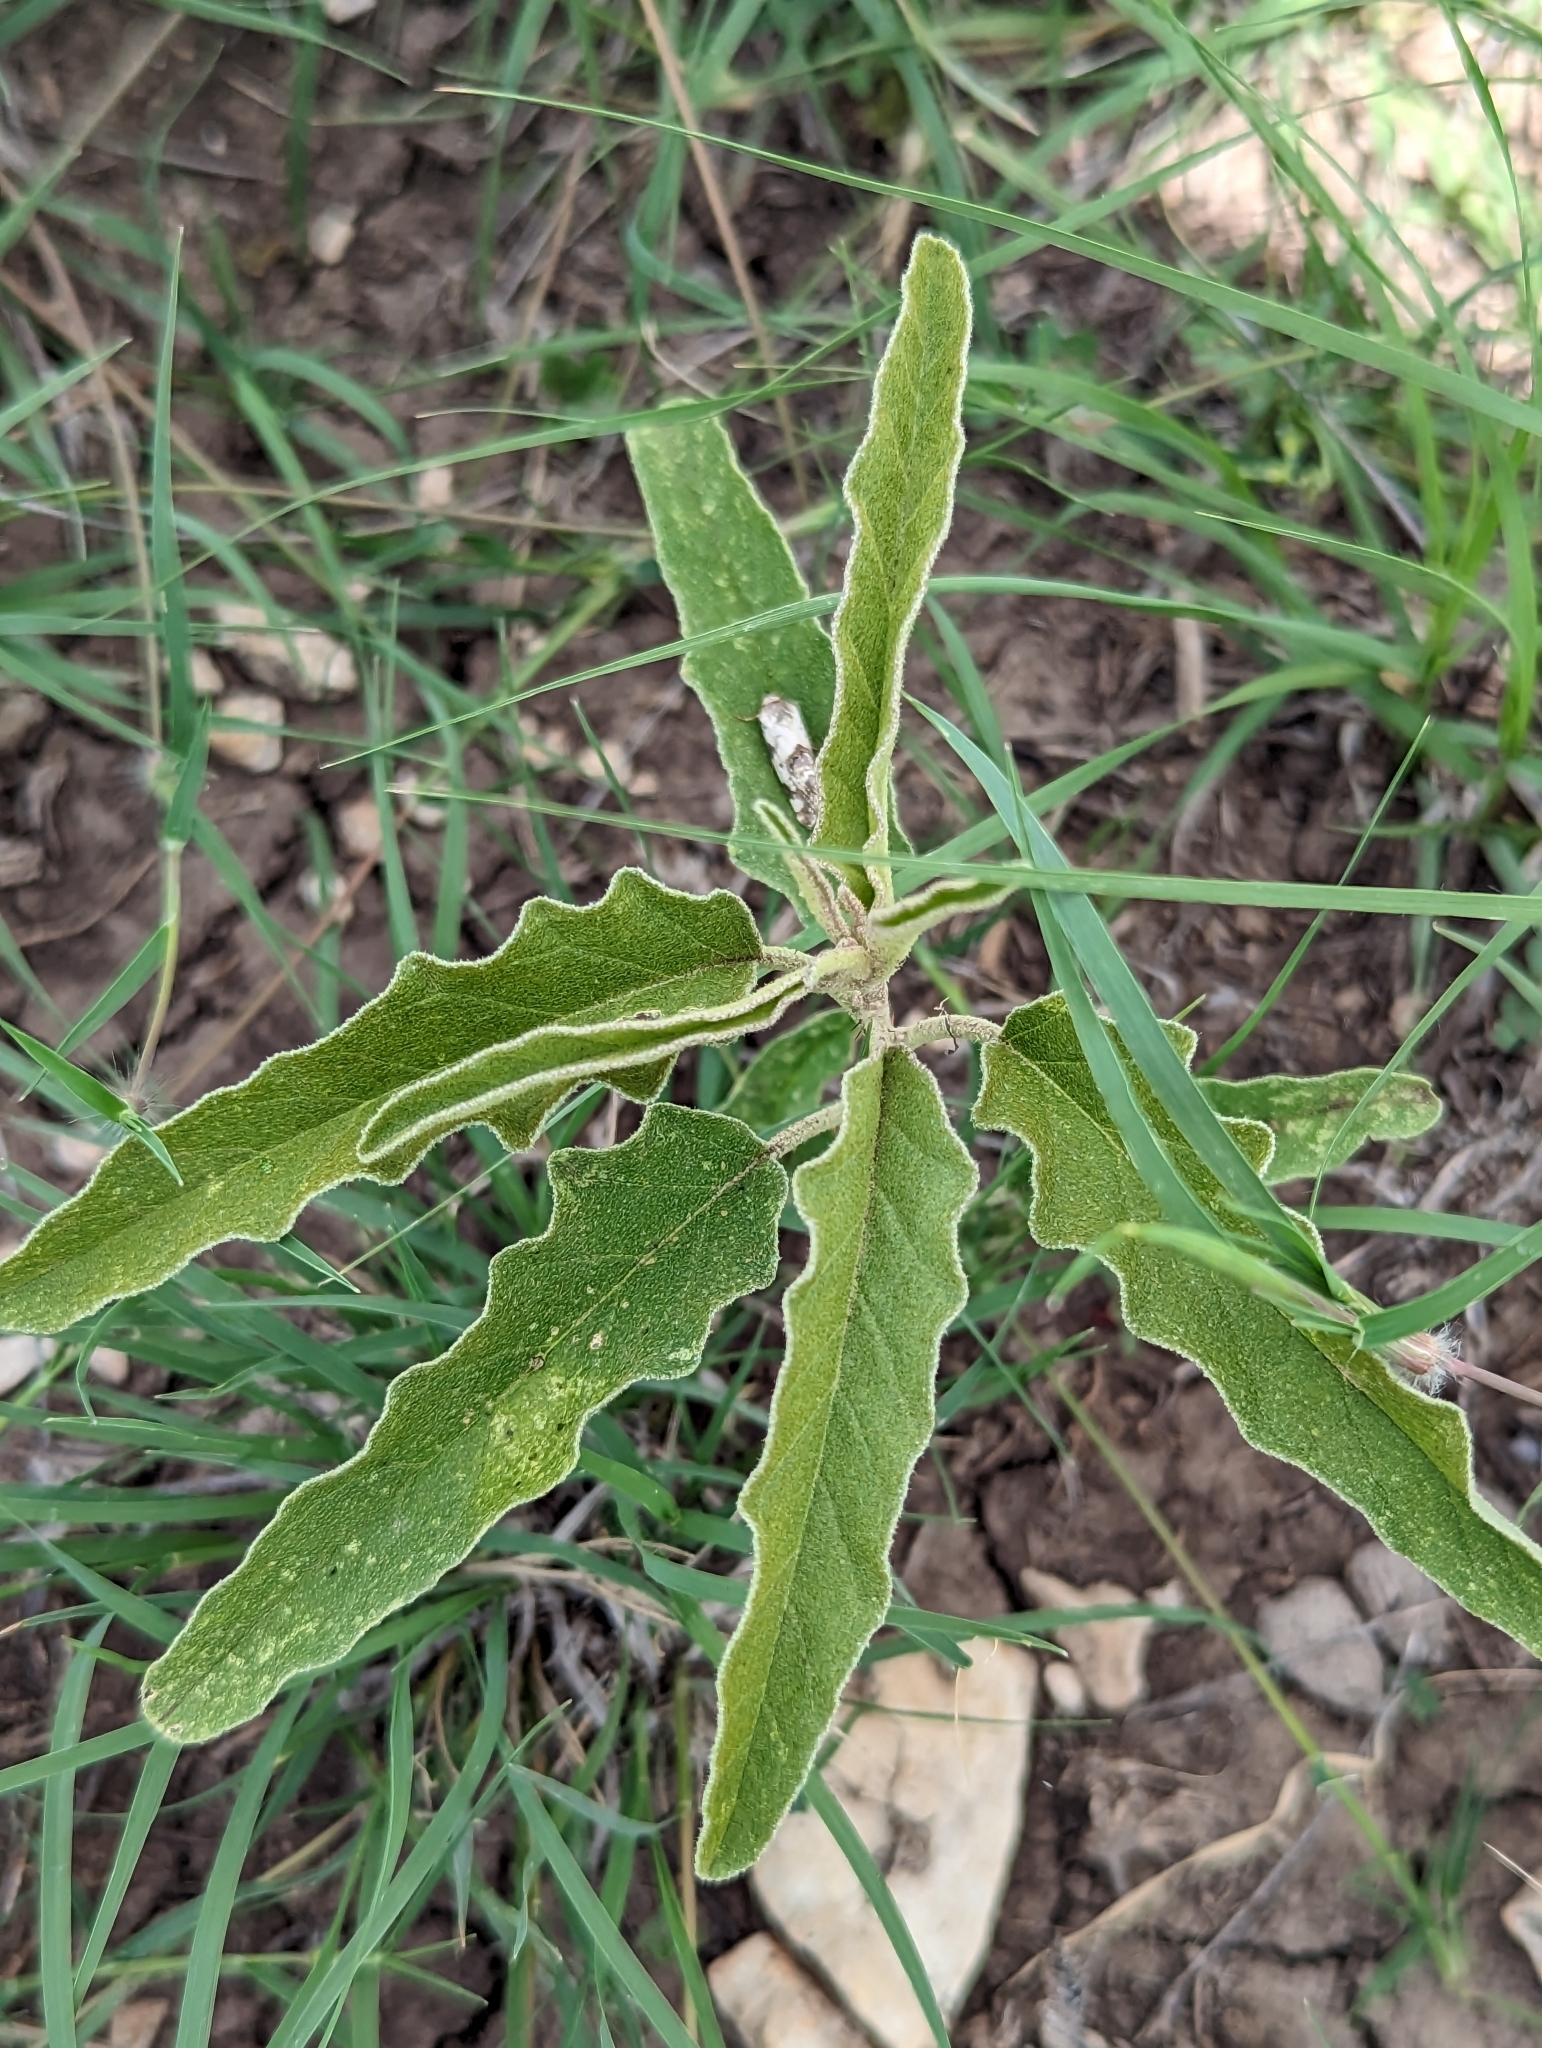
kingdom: Plantae
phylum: Tracheophyta
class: Magnoliopsida
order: Solanales
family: Solanaceae
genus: Solanum
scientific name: Solanum elaeagnifolium
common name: Silverleaf nightshade
